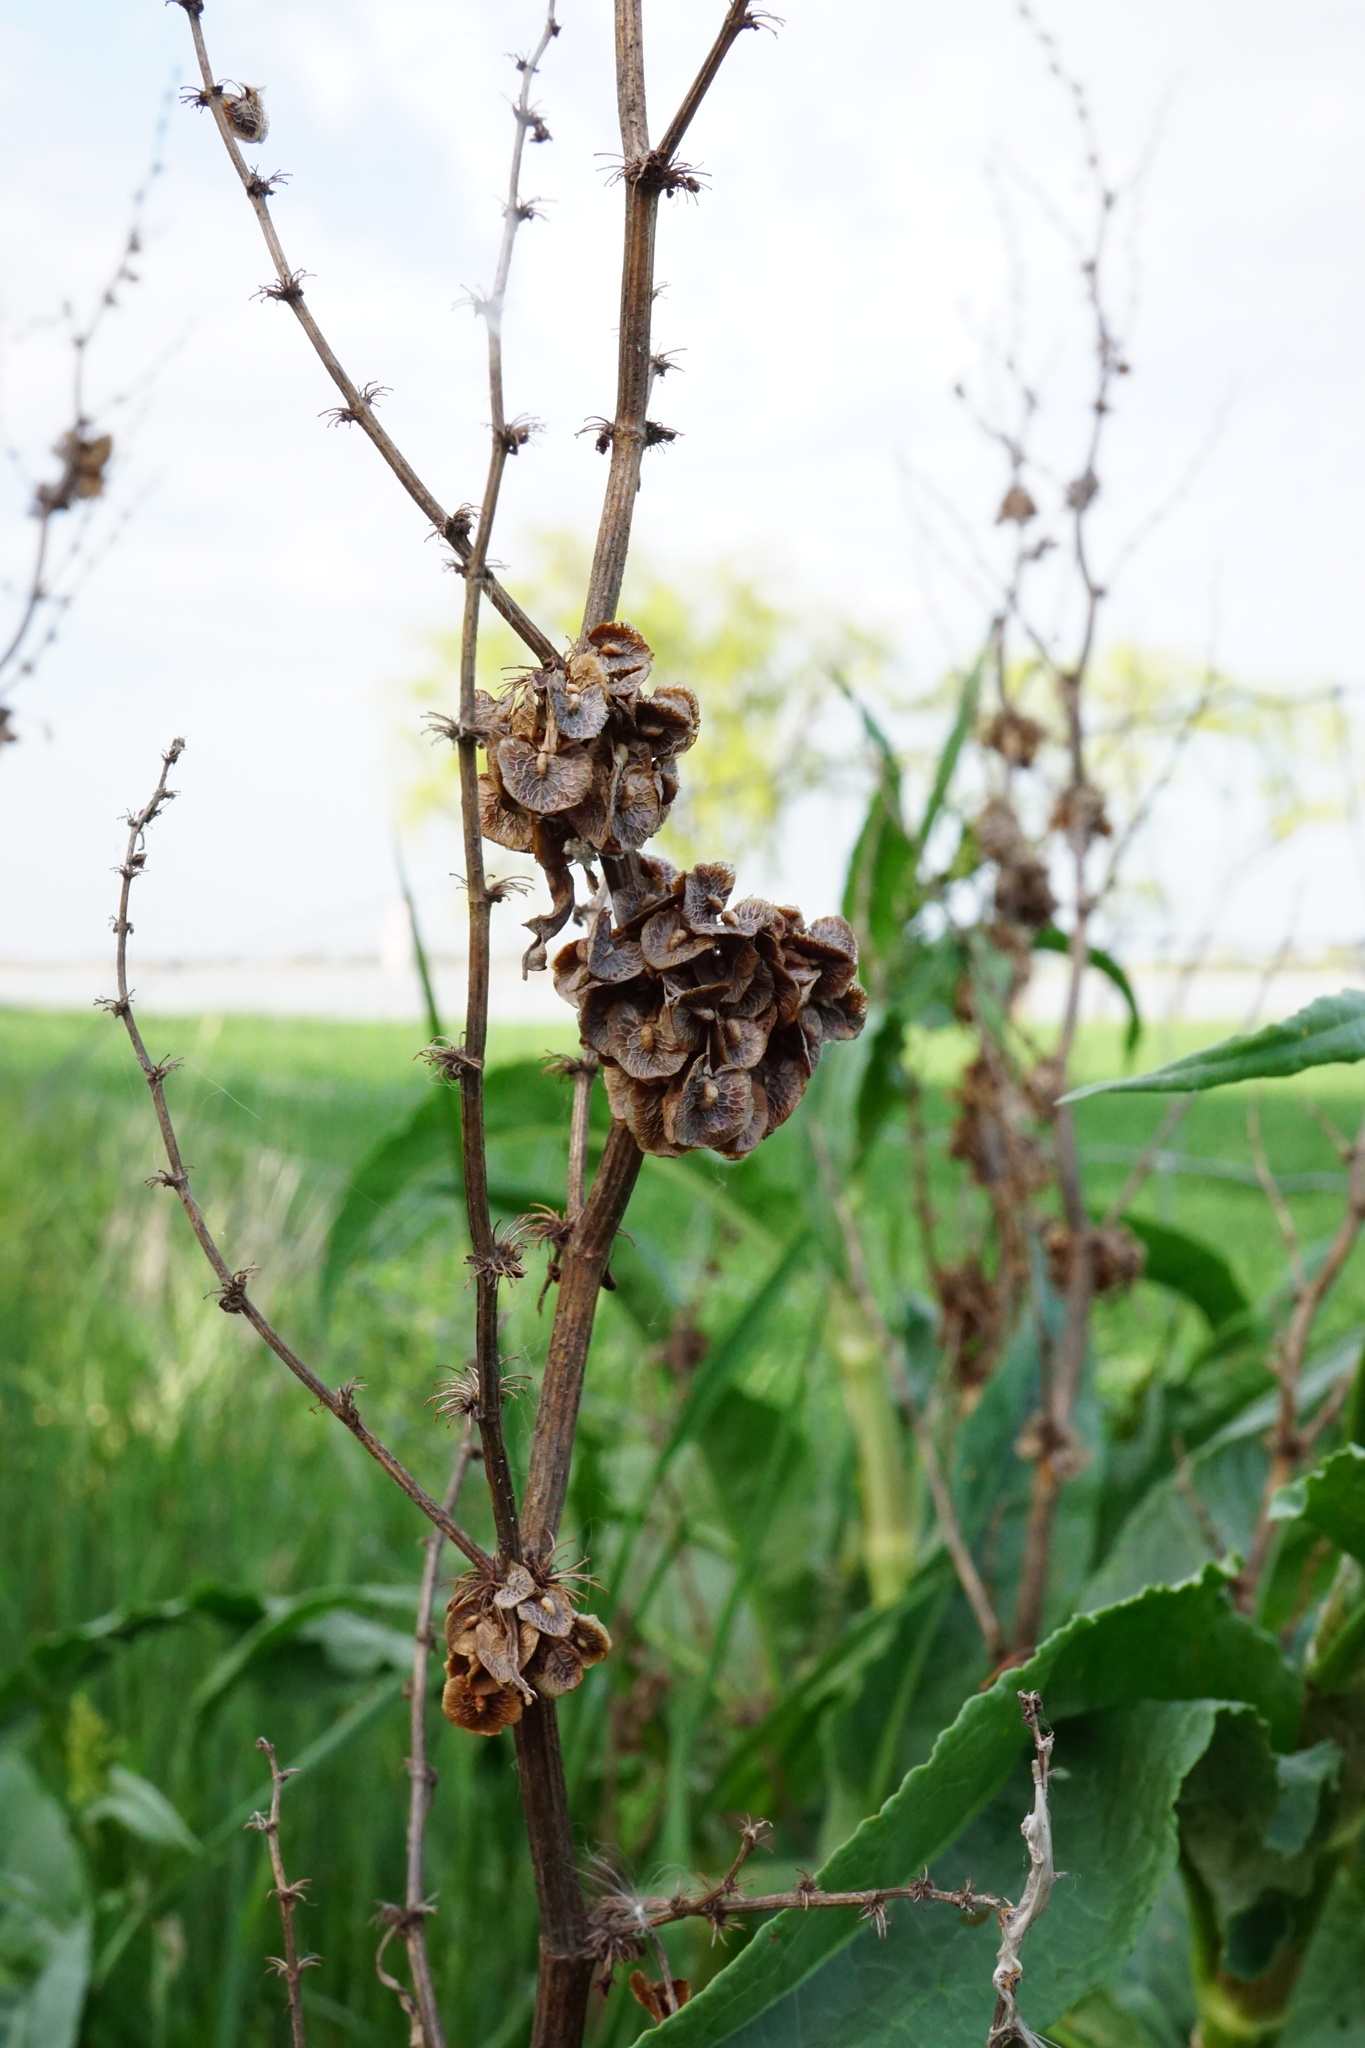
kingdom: Plantae
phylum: Tracheophyta
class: Magnoliopsida
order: Caryophyllales
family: Polygonaceae
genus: Rumex
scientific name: Rumex patientia
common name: Patience dock
